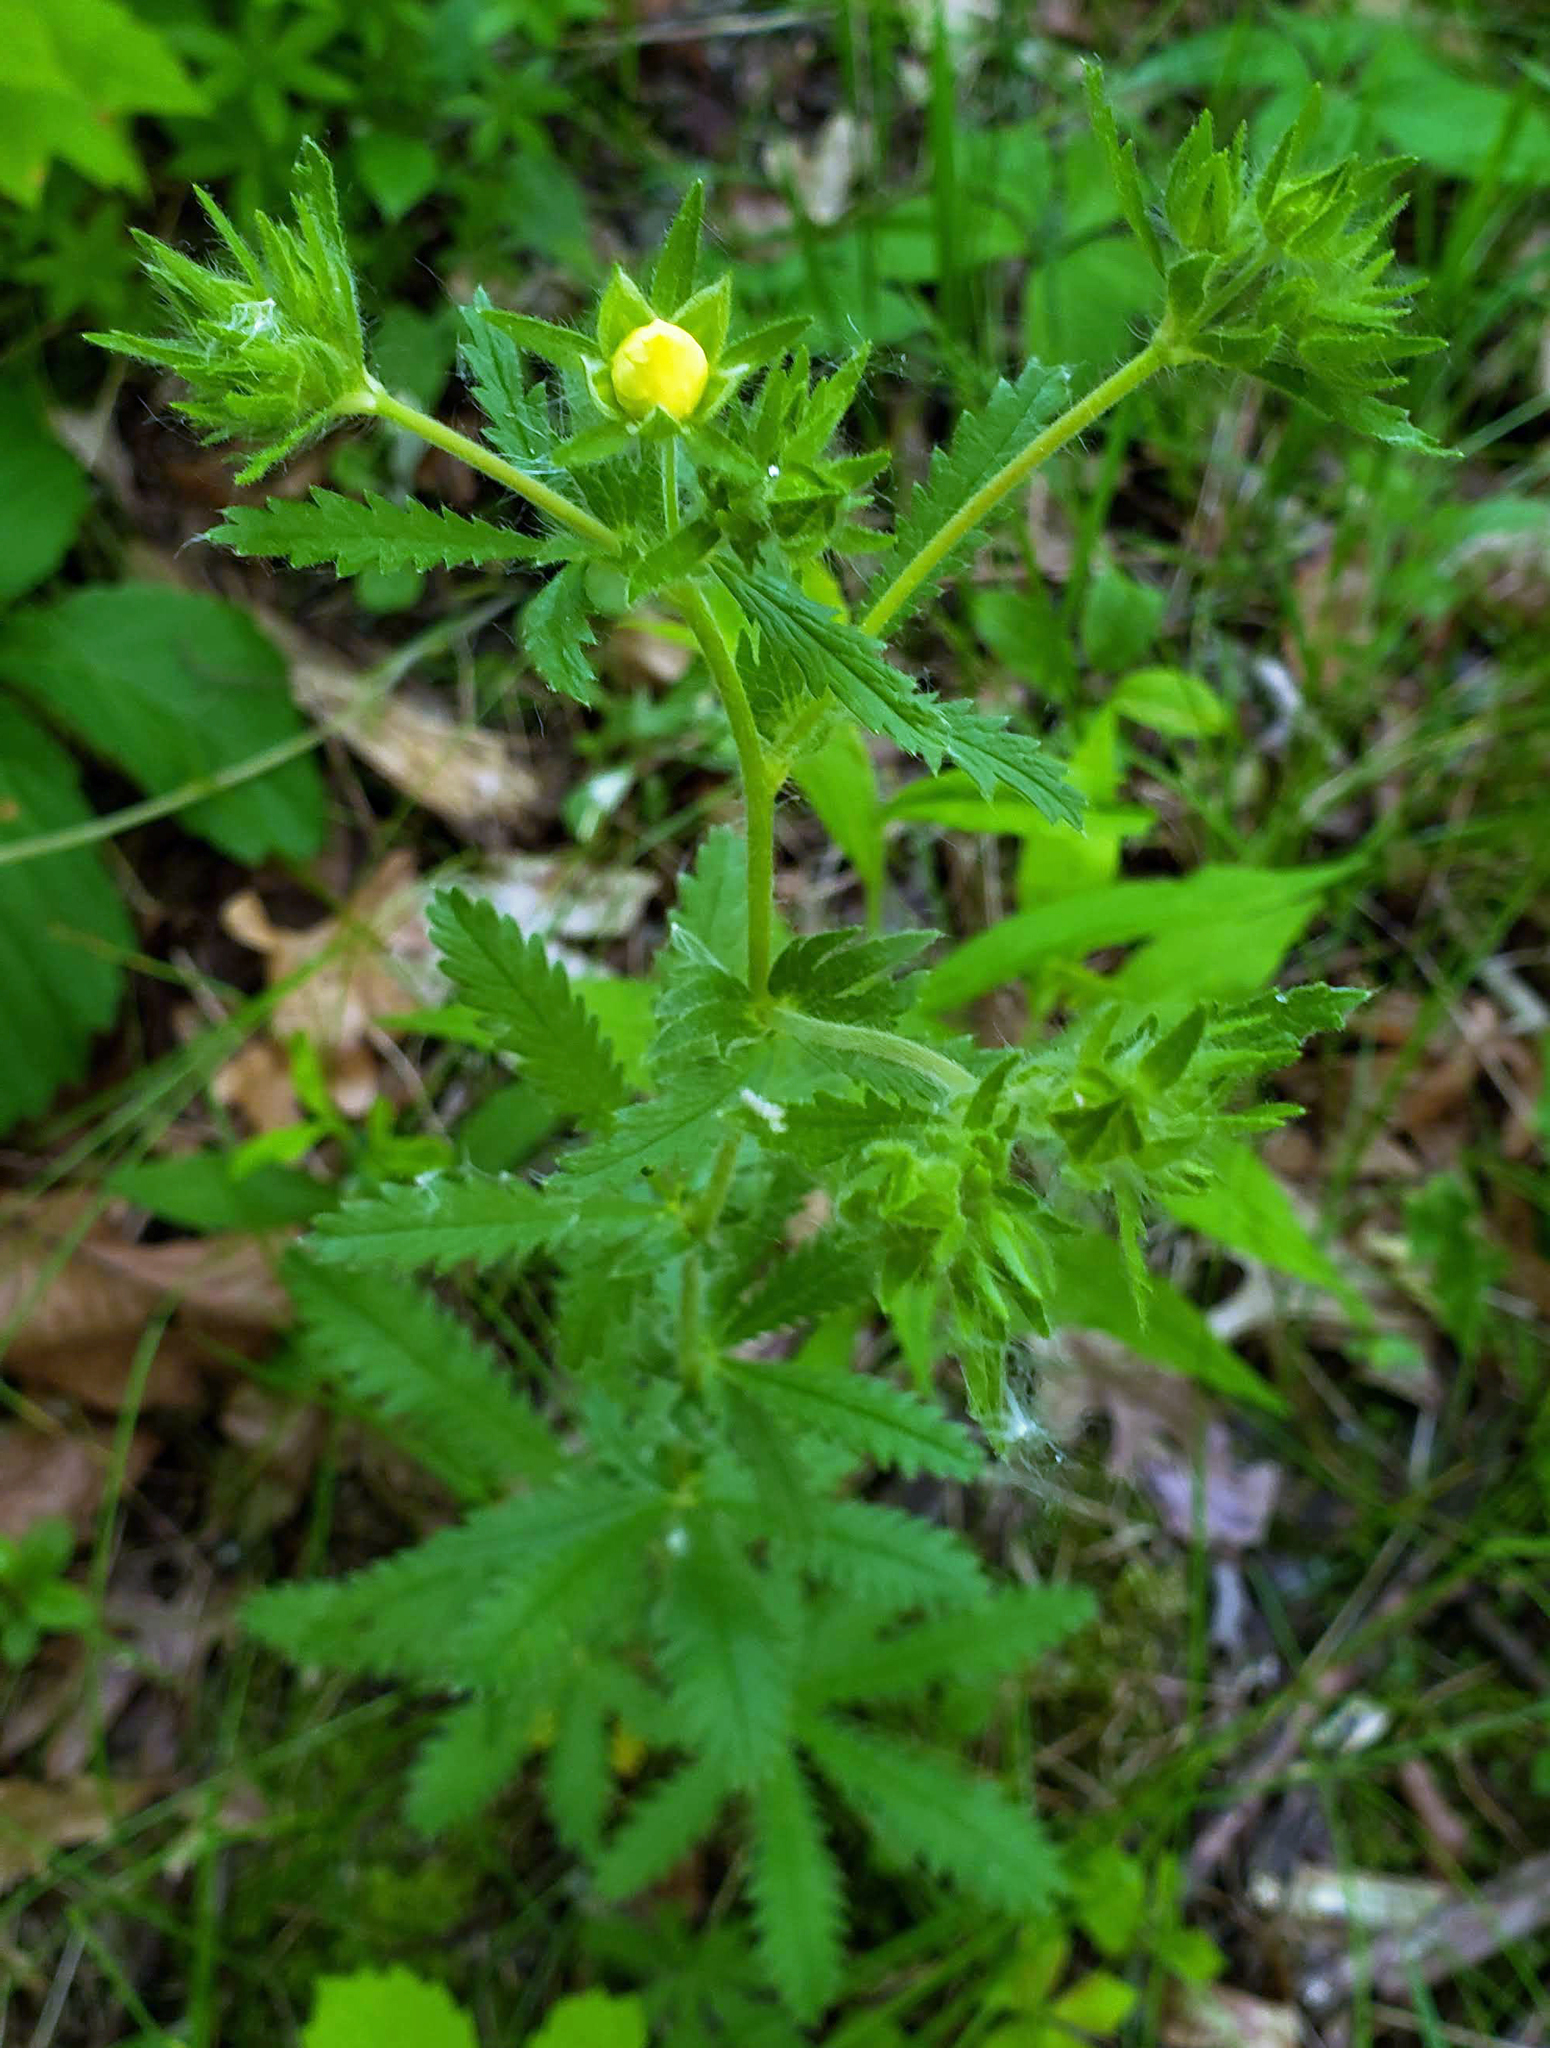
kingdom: Plantae
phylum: Tracheophyta
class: Magnoliopsida
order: Rosales
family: Rosaceae
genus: Potentilla
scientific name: Potentilla recta
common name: Sulphur cinquefoil
